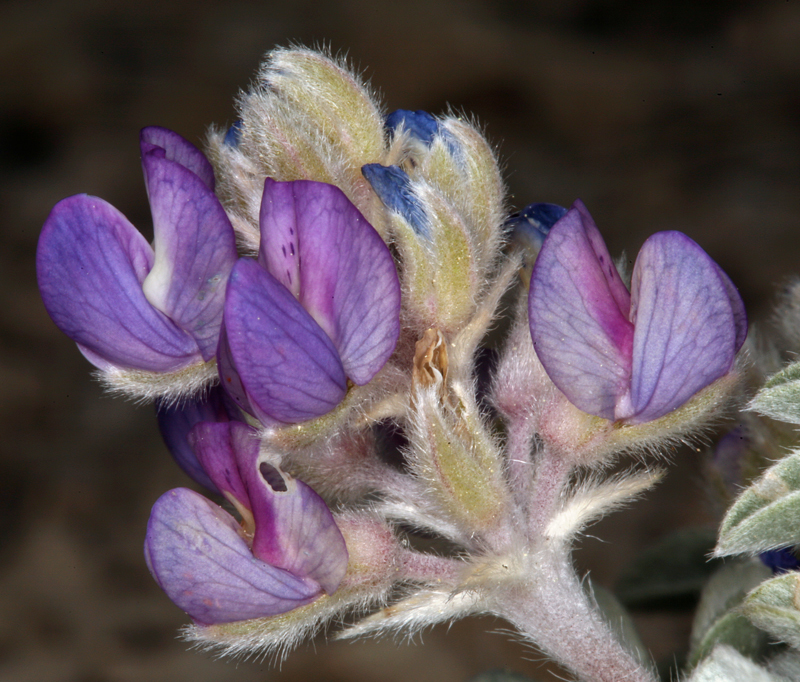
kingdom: Plantae
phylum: Tracheophyta
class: Magnoliopsida
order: Fabales
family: Fabaceae
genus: Lupinus
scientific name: Lupinus duranii
